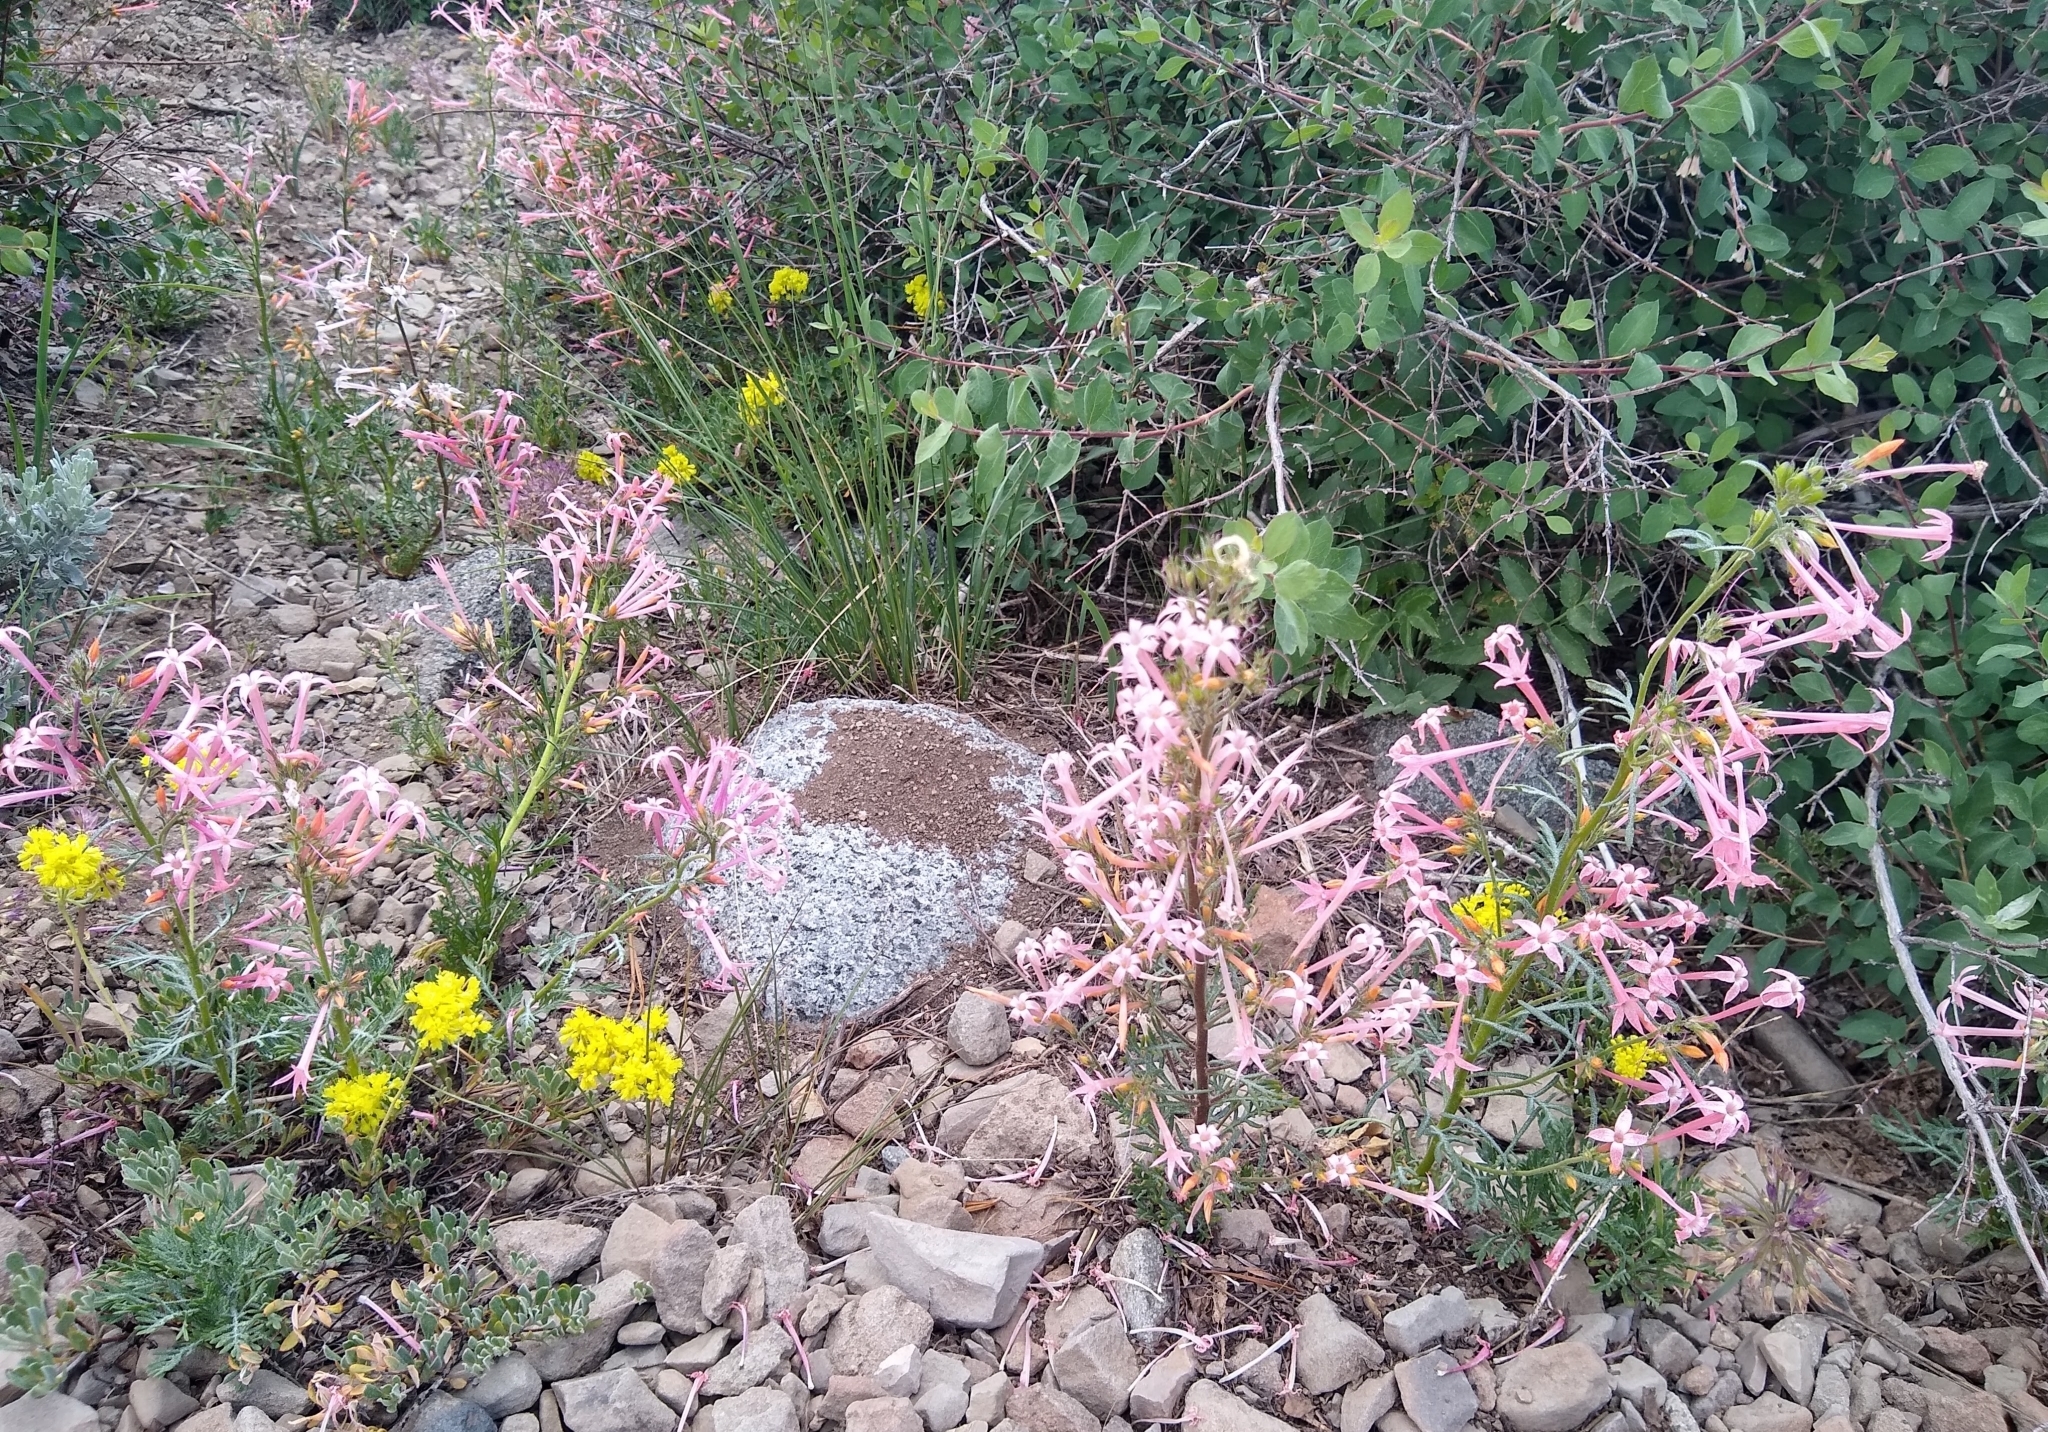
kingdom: Plantae
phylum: Tracheophyta
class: Magnoliopsida
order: Ericales
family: Polemoniaceae
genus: Ipomopsis
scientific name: Ipomopsis tenuituba
